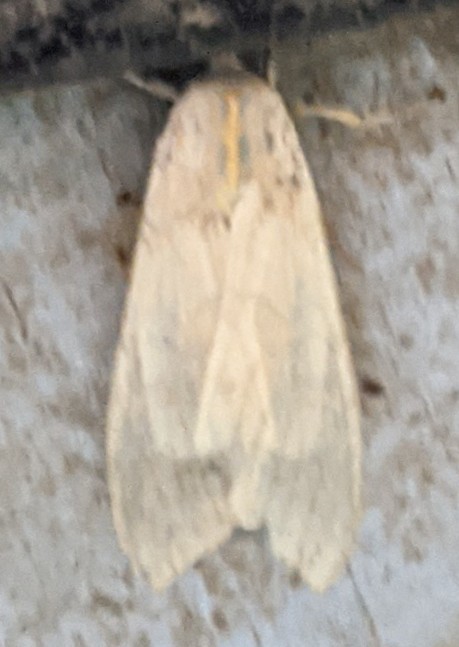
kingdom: Animalia
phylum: Arthropoda
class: Insecta
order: Lepidoptera
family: Erebidae
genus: Halysidota
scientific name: Halysidota tessellaris
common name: Banded tussock moth
